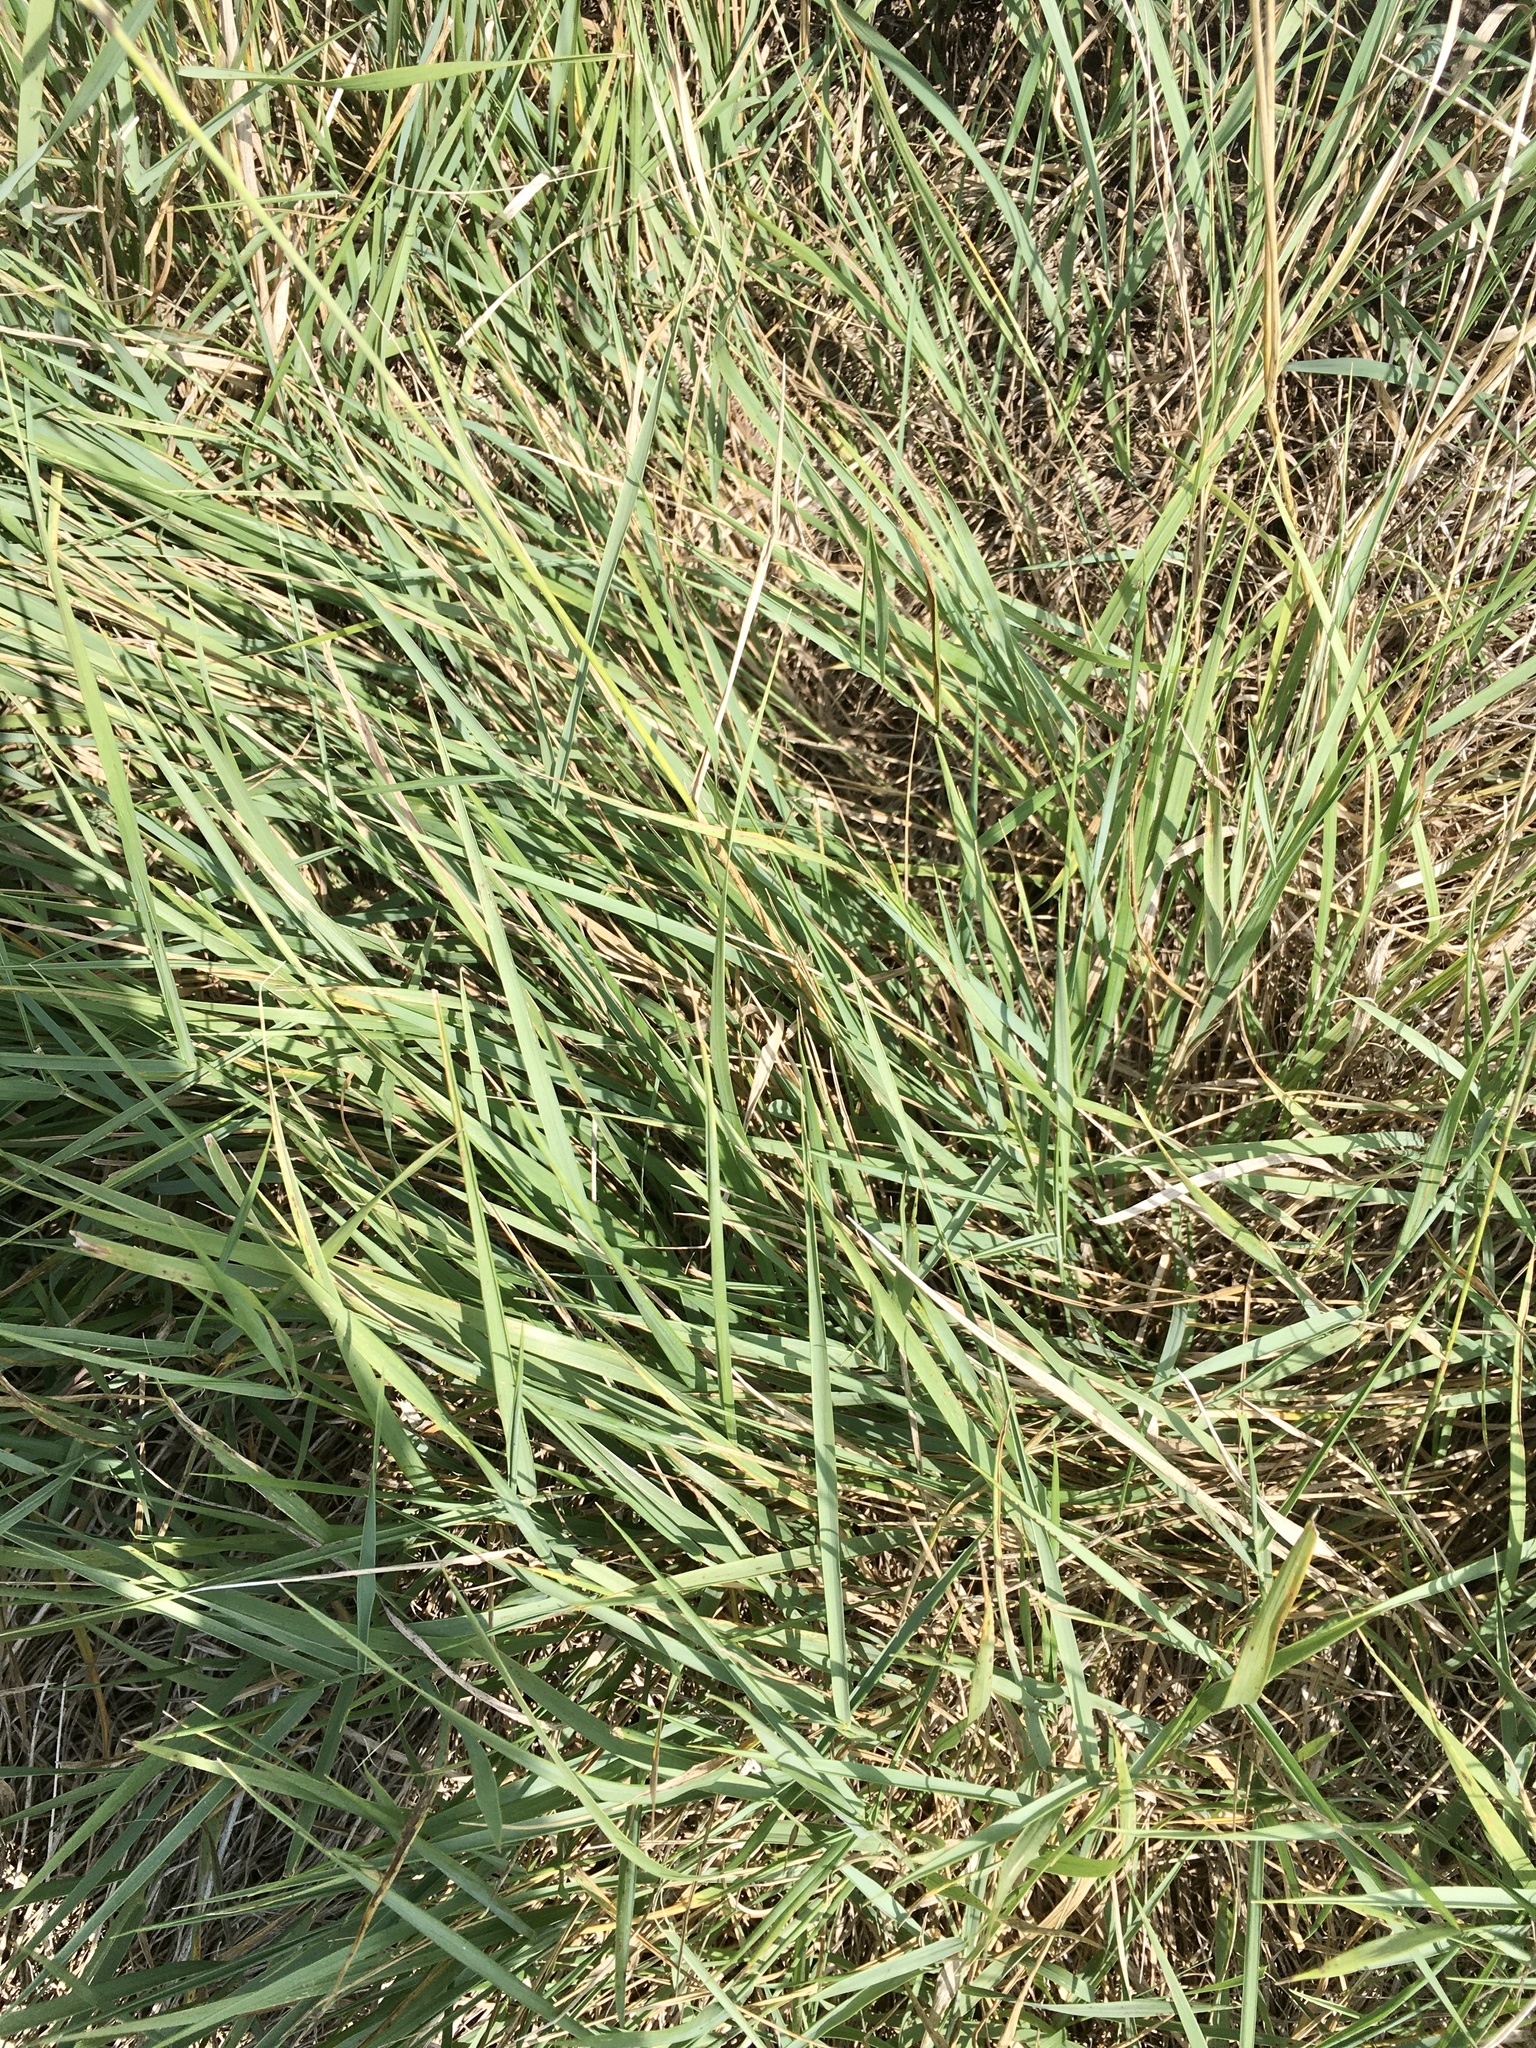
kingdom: Plantae
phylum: Tracheophyta
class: Liliopsida
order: Poales
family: Poaceae
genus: Elymus
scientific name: Elymus repens
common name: Quackgrass
